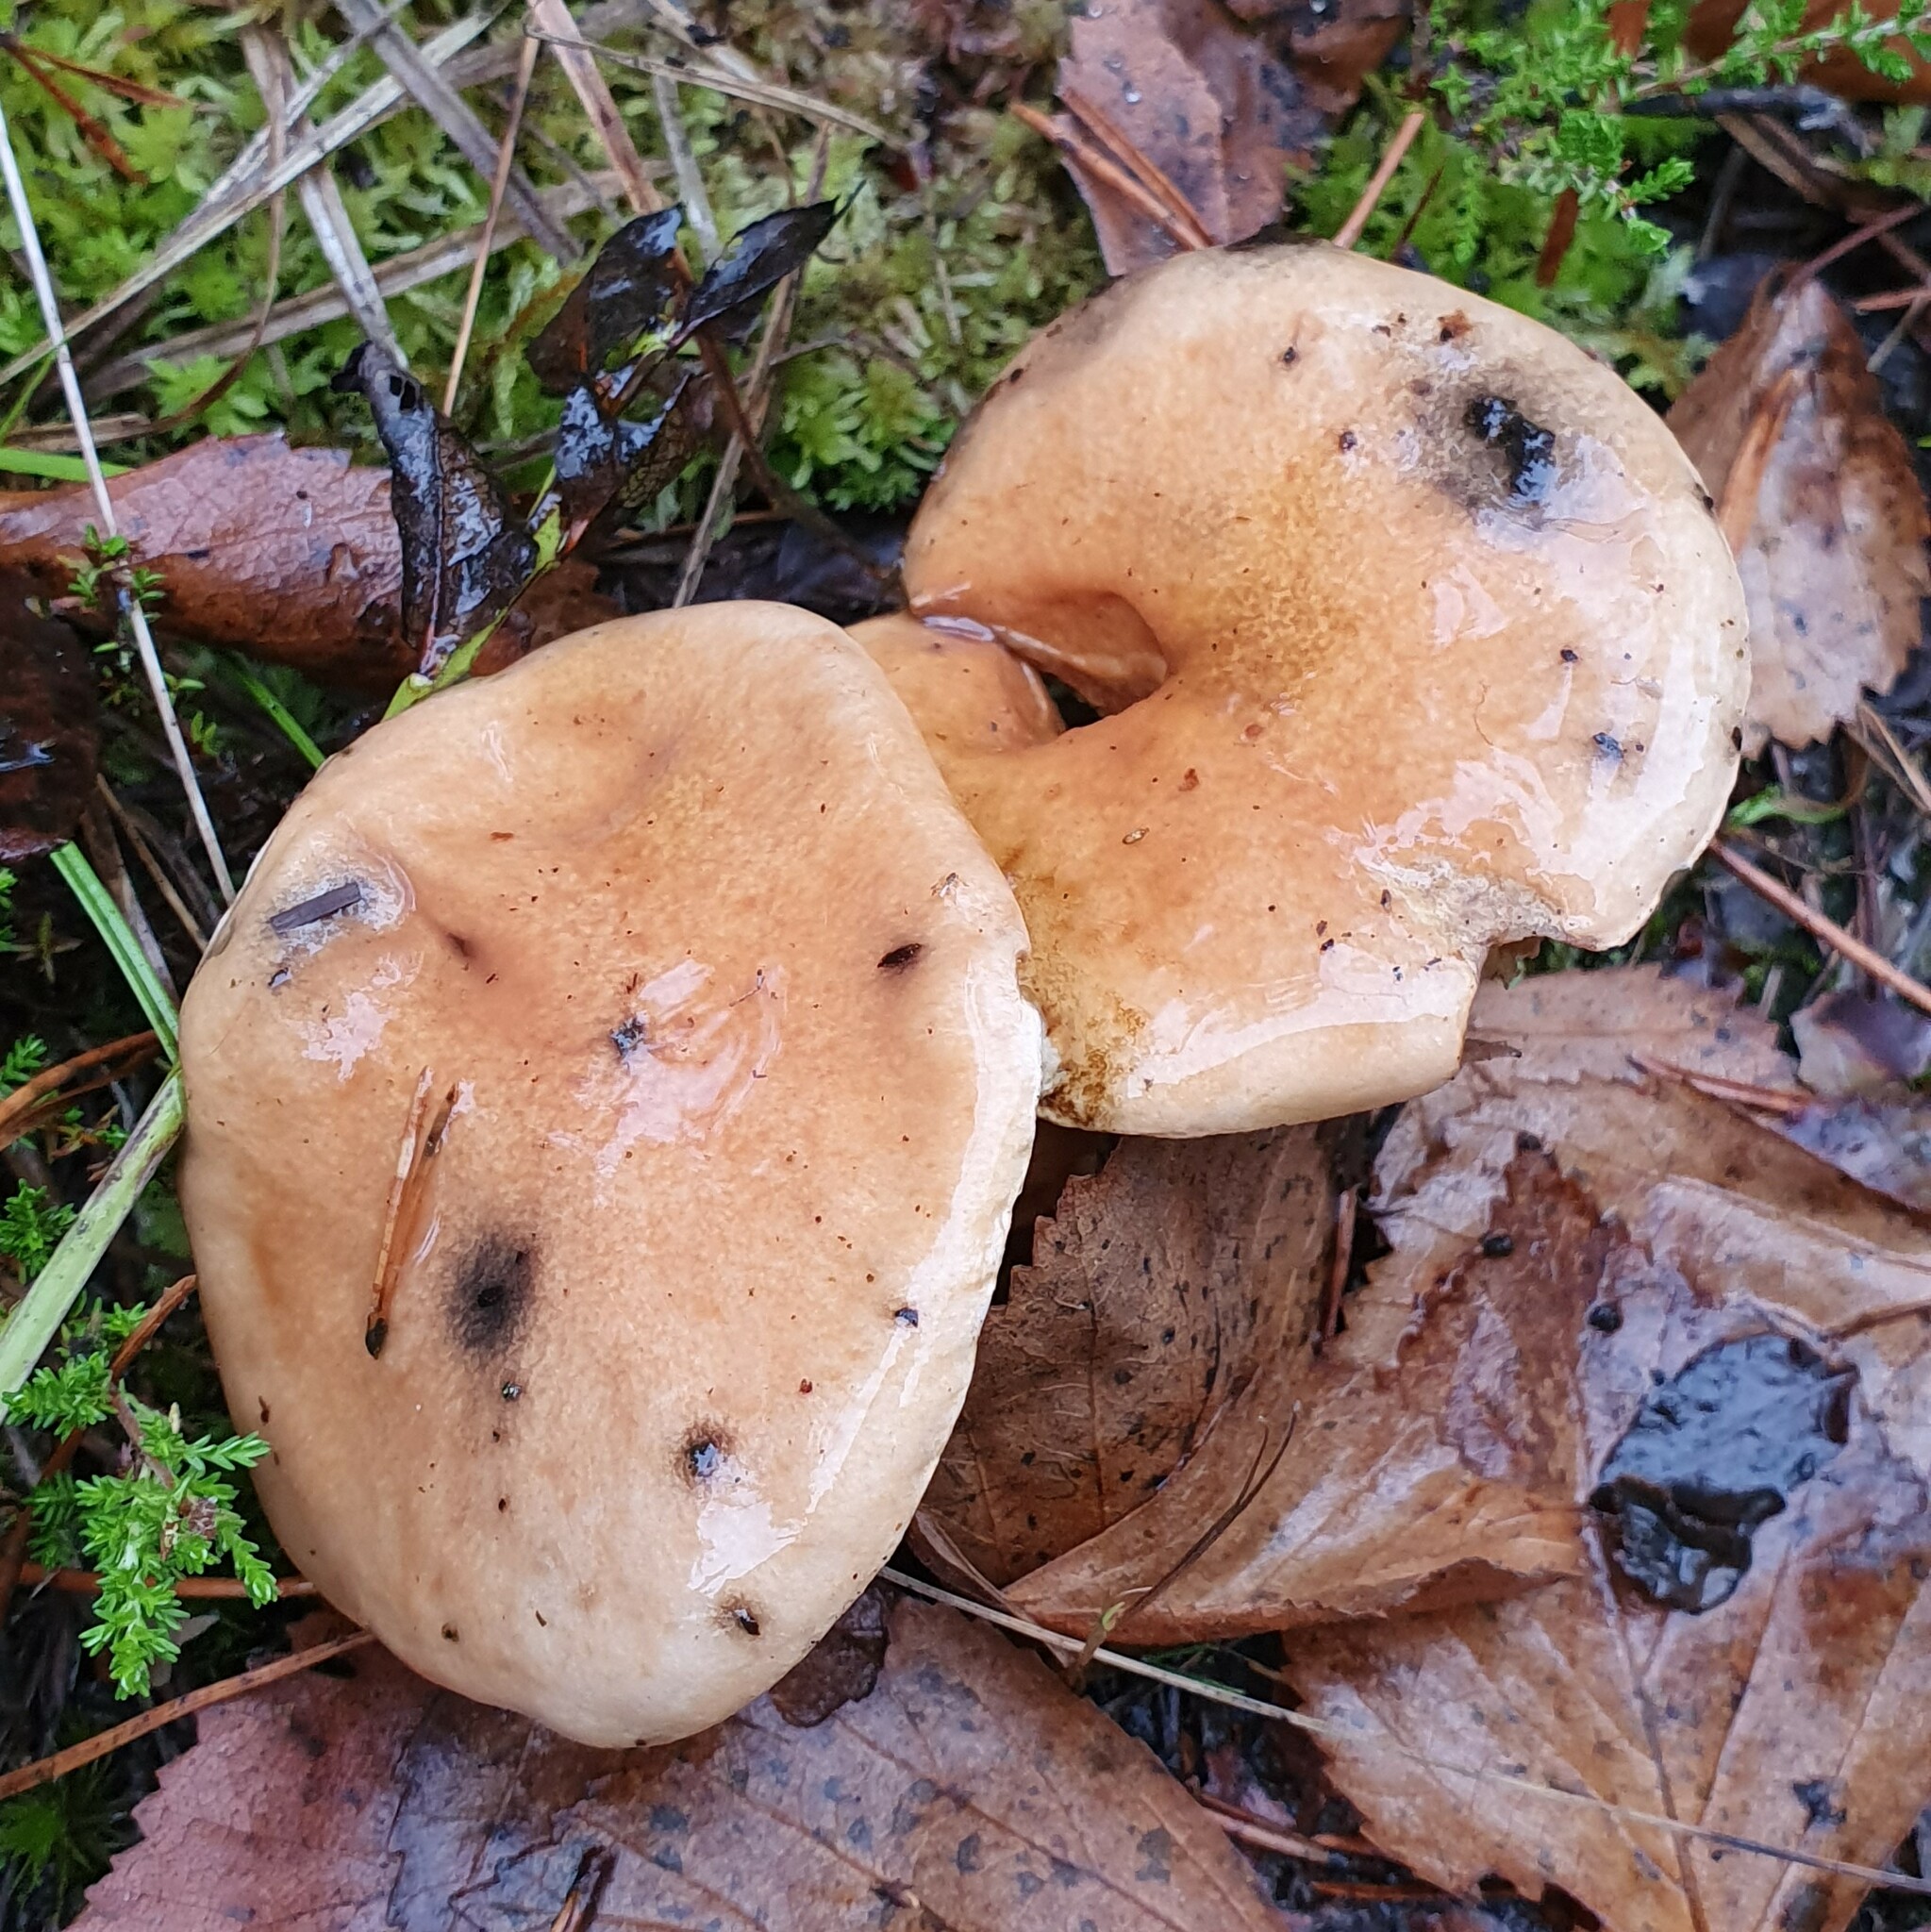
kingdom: Fungi
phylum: Basidiomycota
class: Agaricomycetes
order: Boletales
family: Suillaceae
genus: Suillus
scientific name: Suillus bovinus
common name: Bovine bolete
